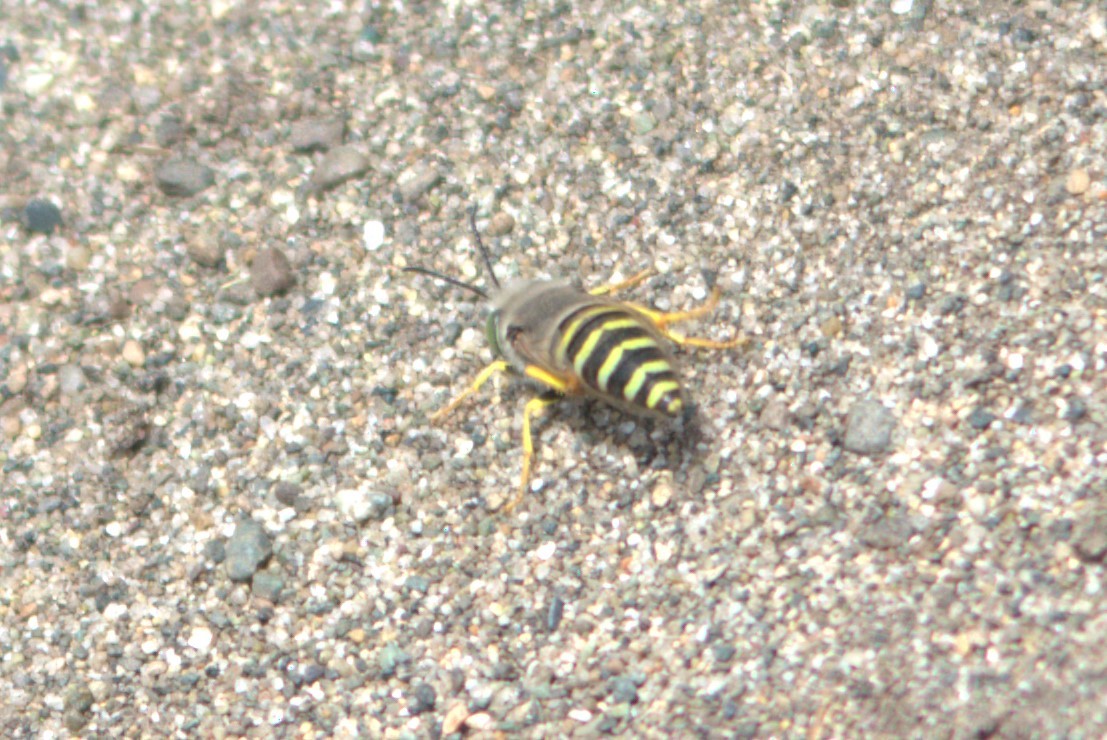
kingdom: Animalia
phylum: Arthropoda
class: Insecta
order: Hymenoptera
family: Crabronidae
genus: Bembix
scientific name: Bembix americana
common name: American sand wasp
